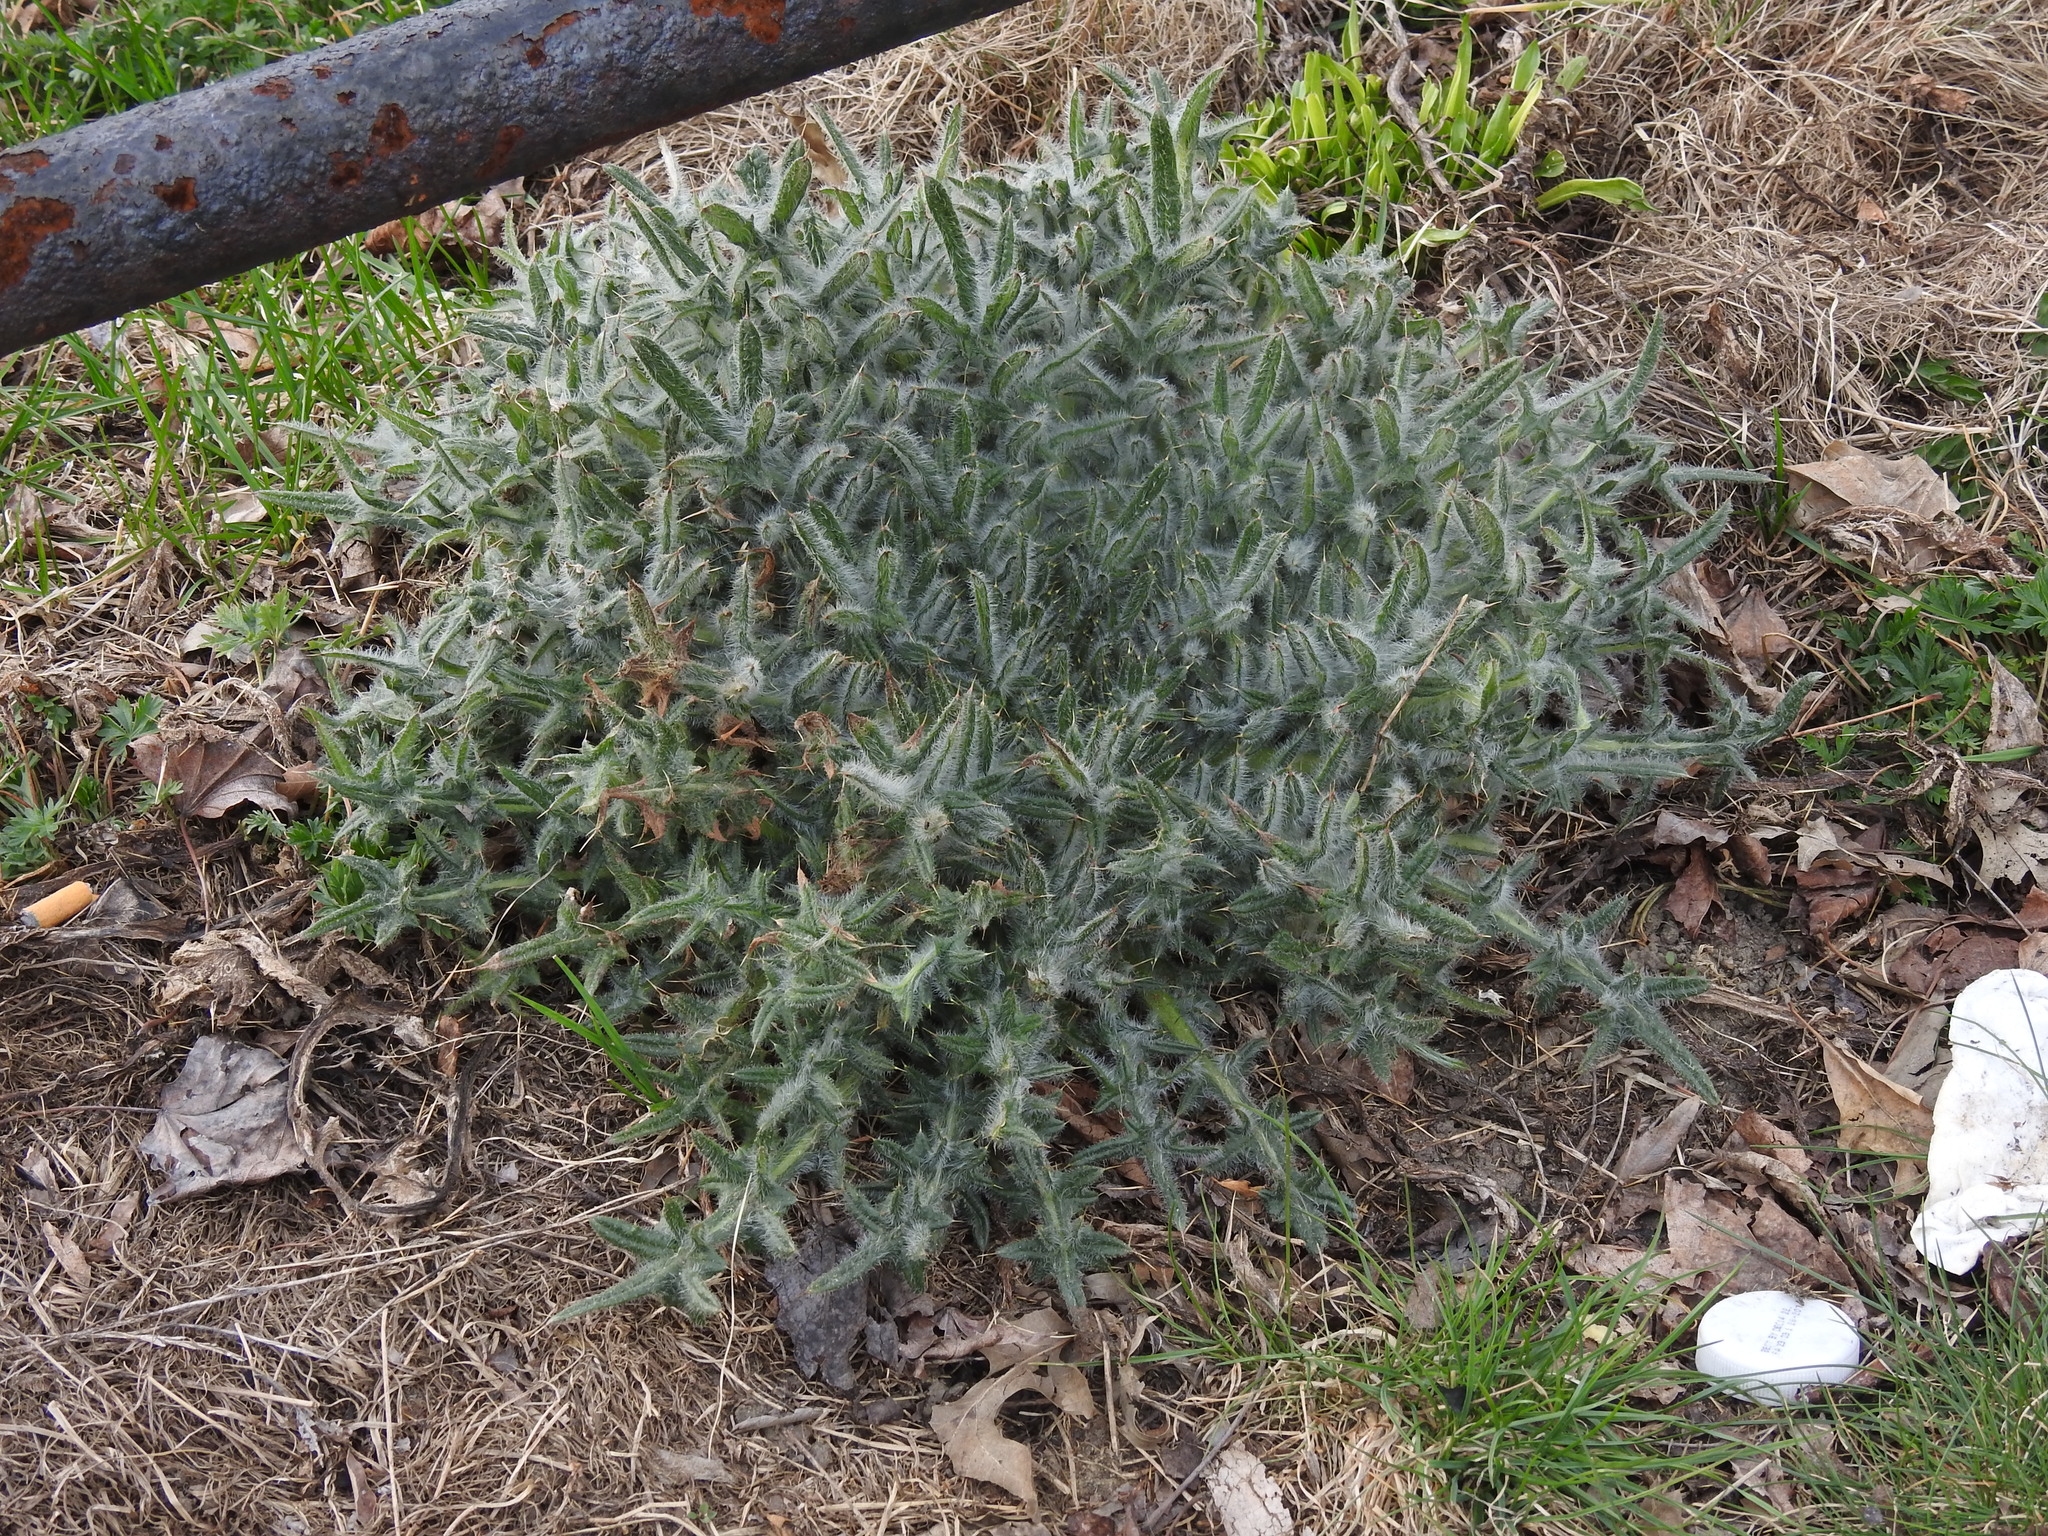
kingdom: Plantae
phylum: Tracheophyta
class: Magnoliopsida
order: Asterales
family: Asteraceae
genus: Cirsium
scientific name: Cirsium vulgare
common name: Bull thistle
